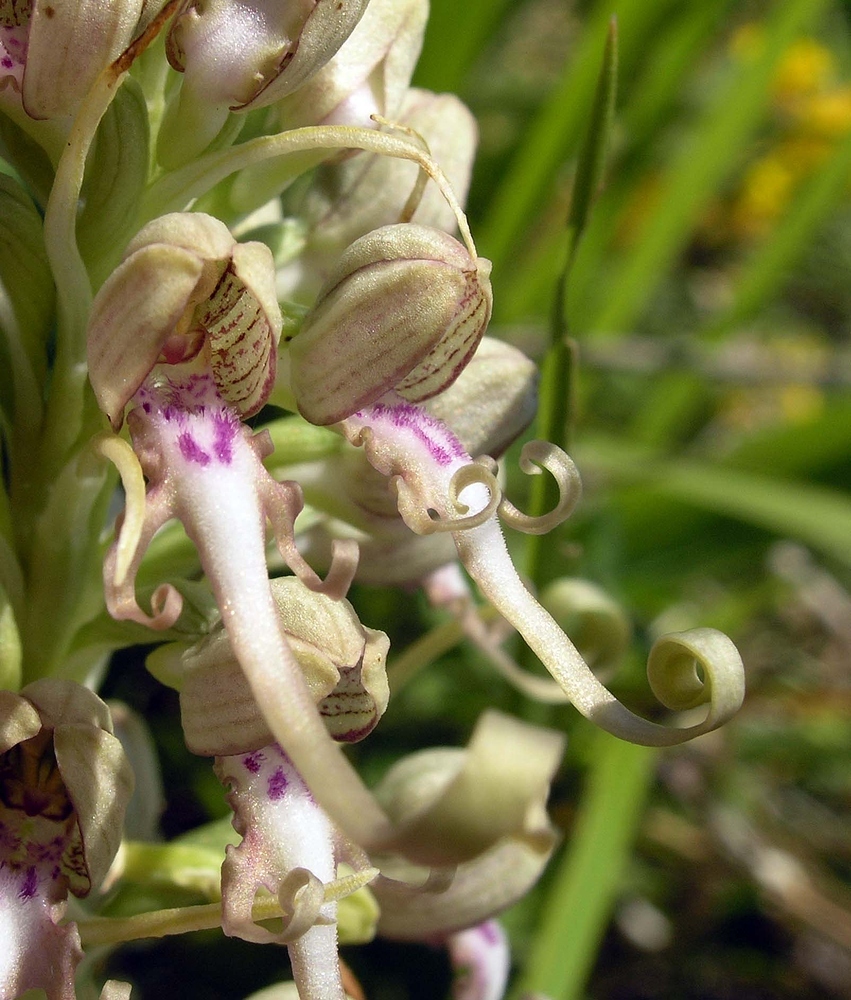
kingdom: Plantae
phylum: Tracheophyta
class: Liliopsida
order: Asparagales
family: Orchidaceae
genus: Himantoglossum
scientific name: Himantoglossum hircinum
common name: Lizard orchid
